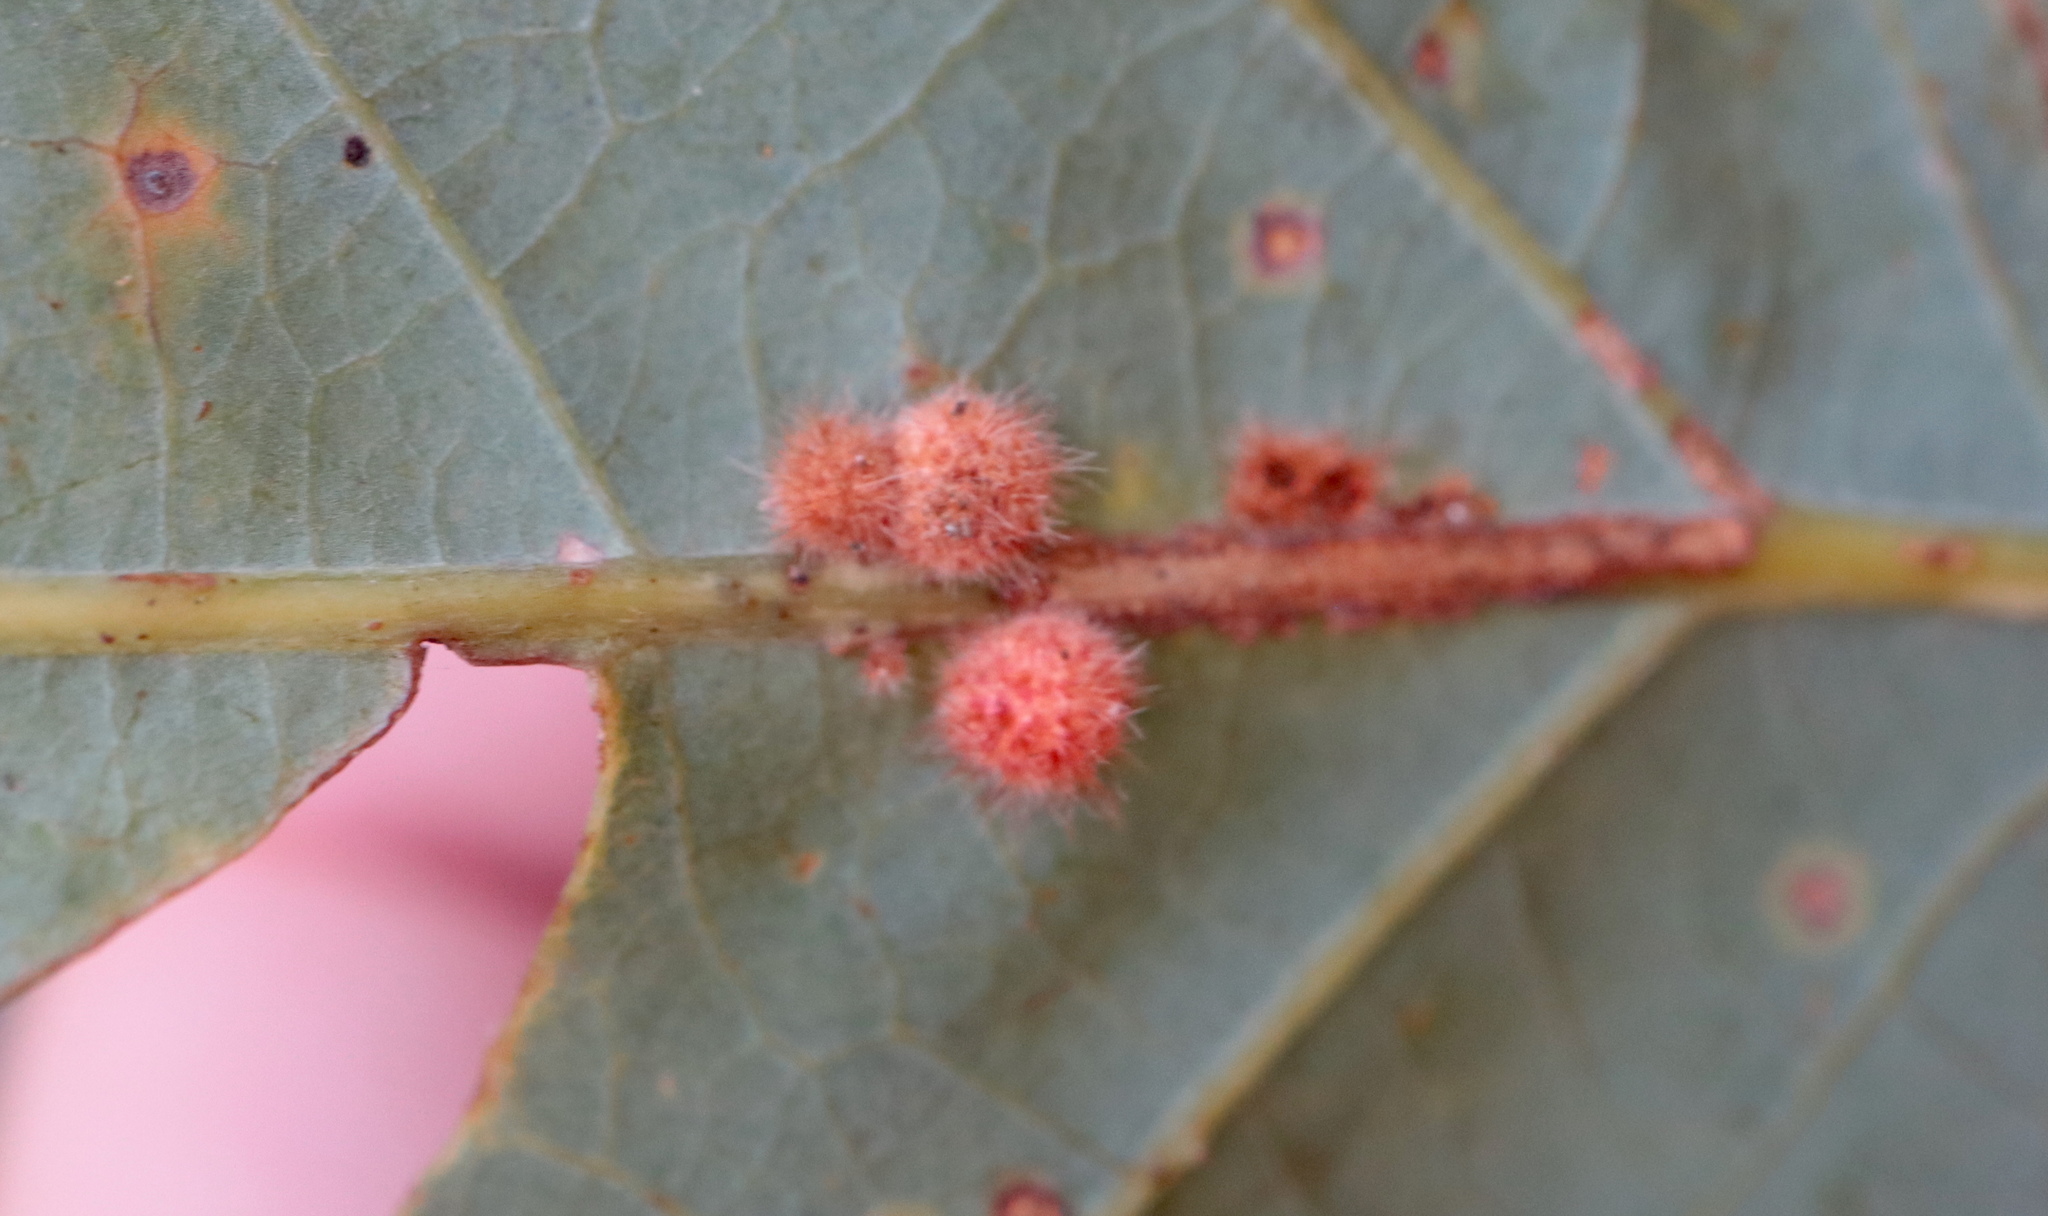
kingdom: Animalia
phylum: Arthropoda
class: Insecta
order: Hymenoptera
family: Cynipidae
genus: Andricus
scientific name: Andricus
